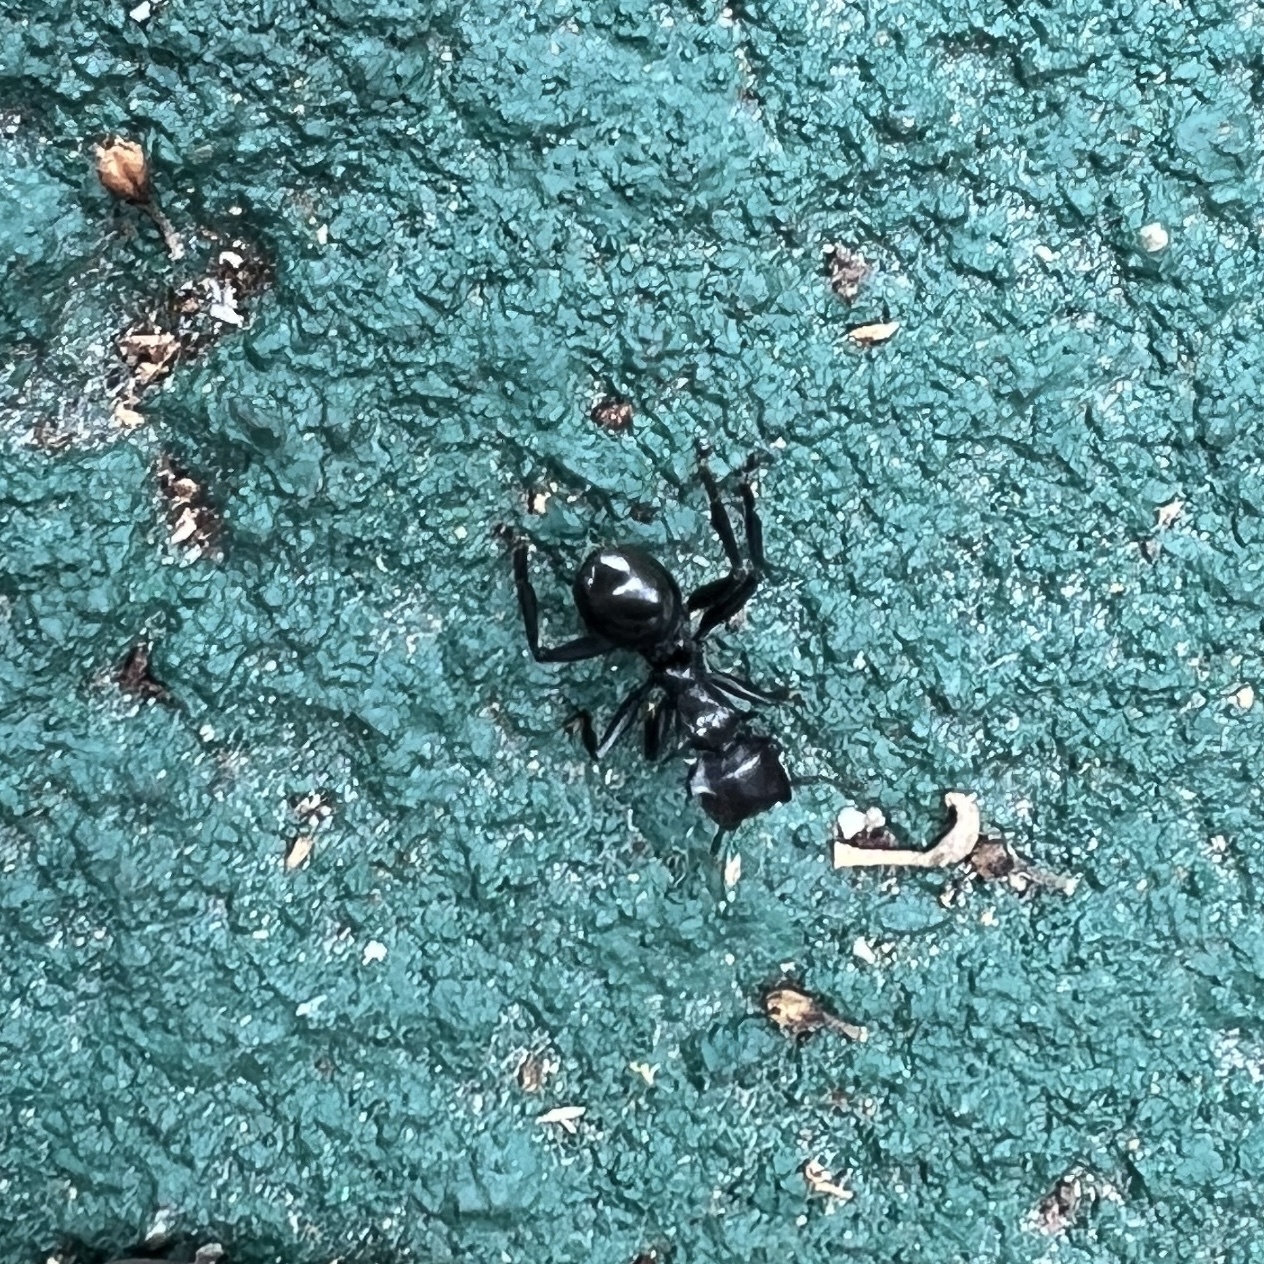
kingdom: Animalia
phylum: Arthropoda
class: Insecta
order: Hymenoptera
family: Formicidae
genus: Cephalotes
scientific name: Cephalotes atratus
